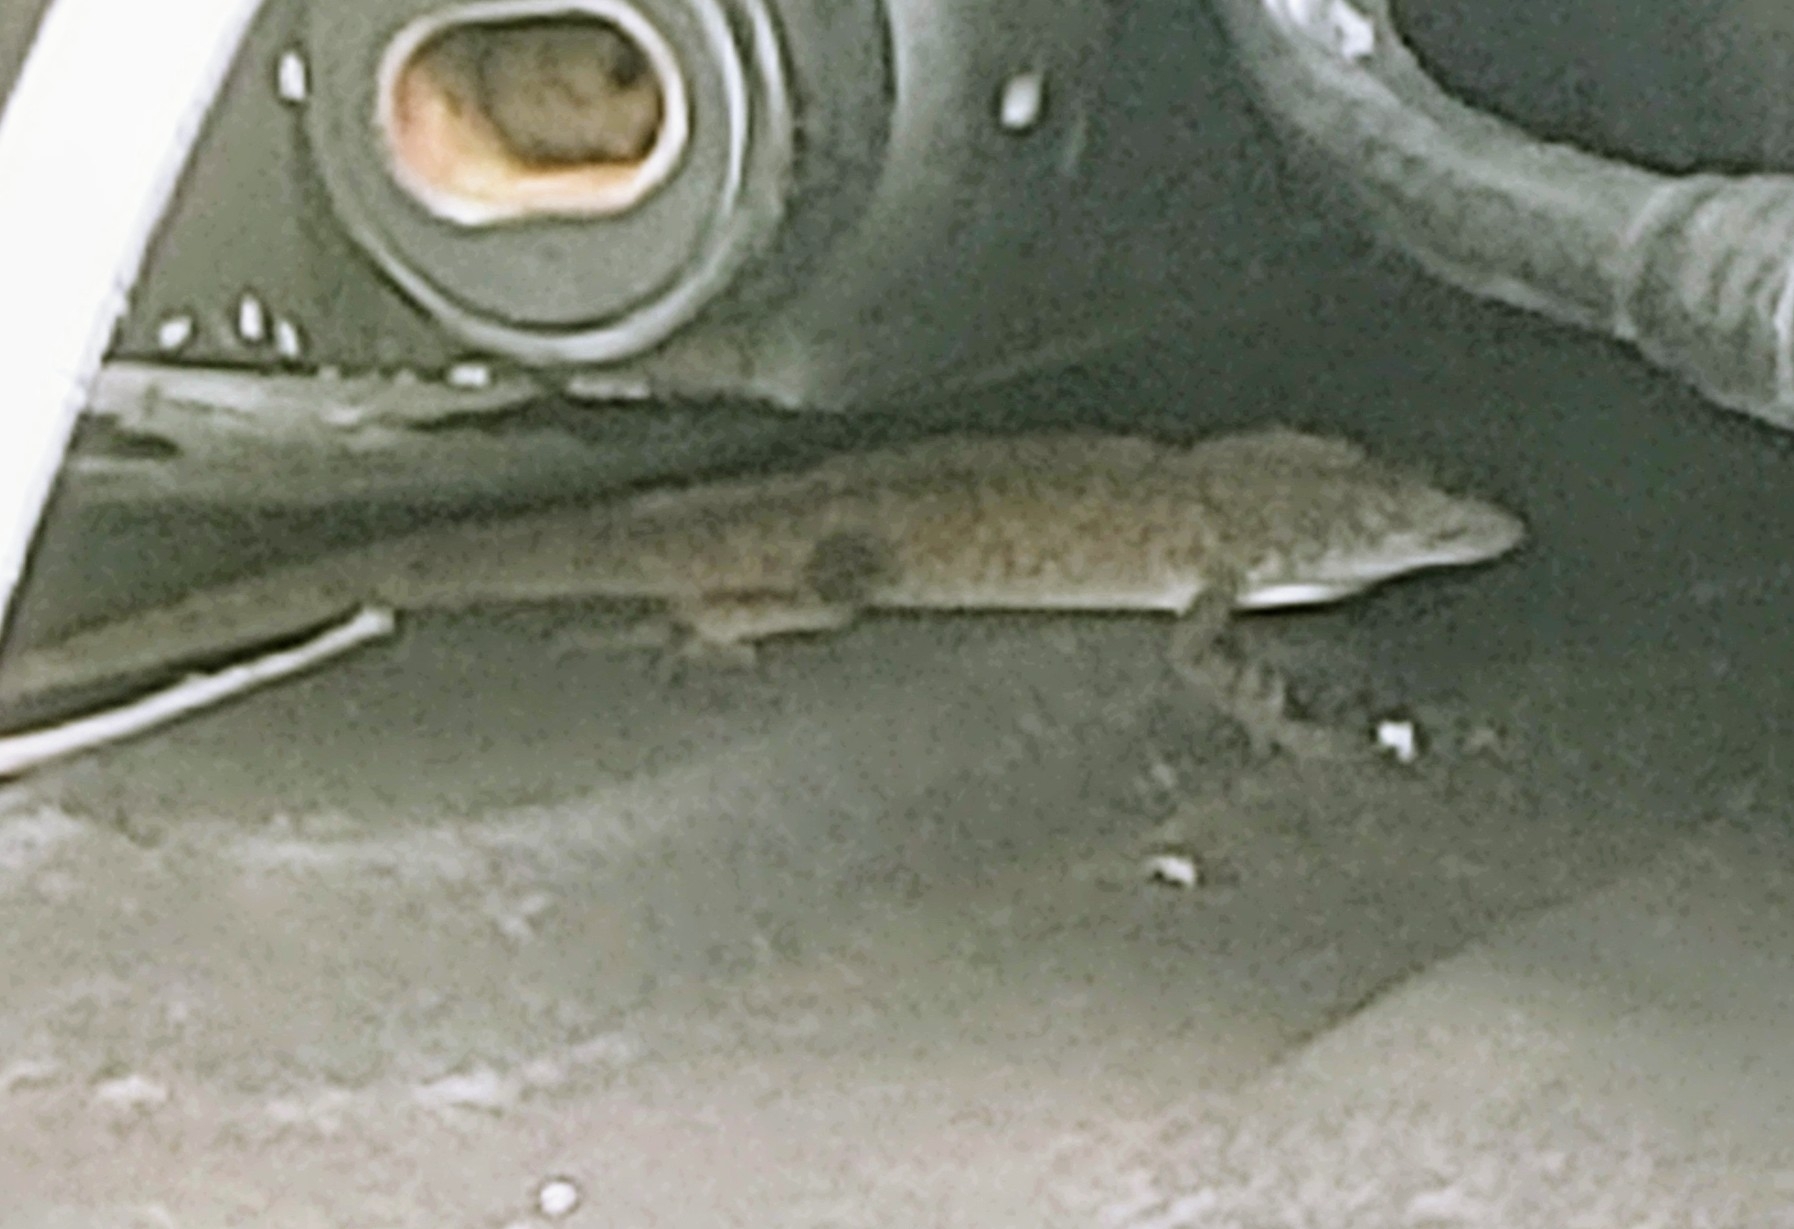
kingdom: Animalia
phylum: Chordata
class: Squamata
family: Dactyloidae
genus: Anolis
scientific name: Anolis sagrei
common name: Brown anole
